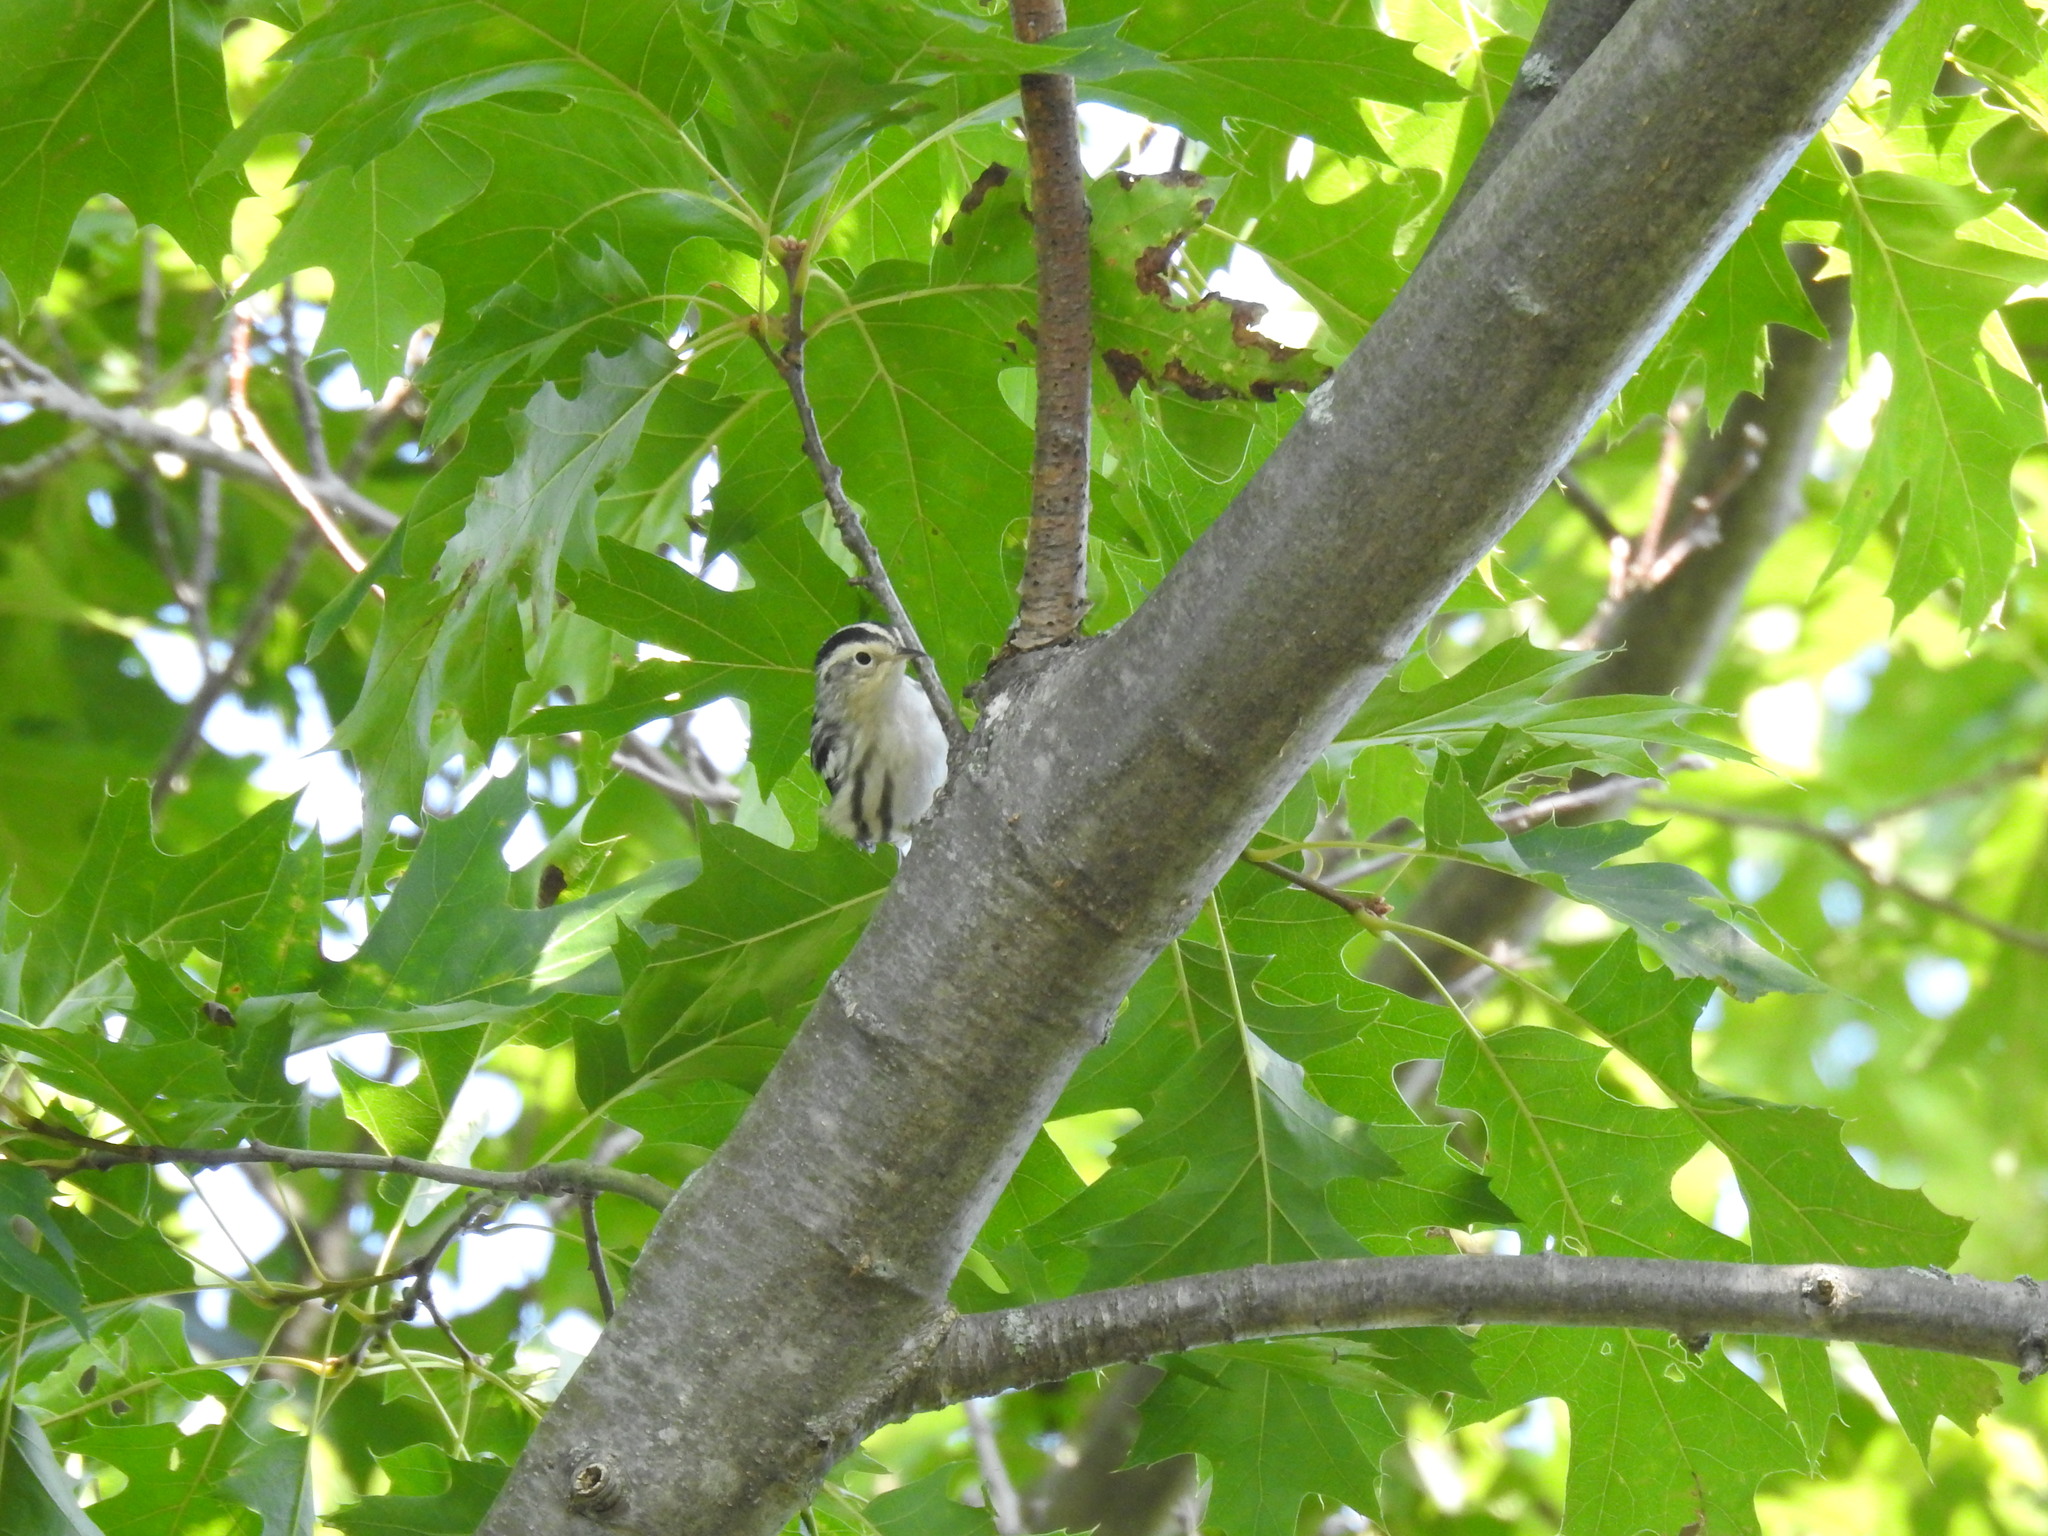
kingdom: Animalia
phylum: Chordata
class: Aves
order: Passeriformes
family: Parulidae
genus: Mniotilta
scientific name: Mniotilta varia
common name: Black-and-white warbler
